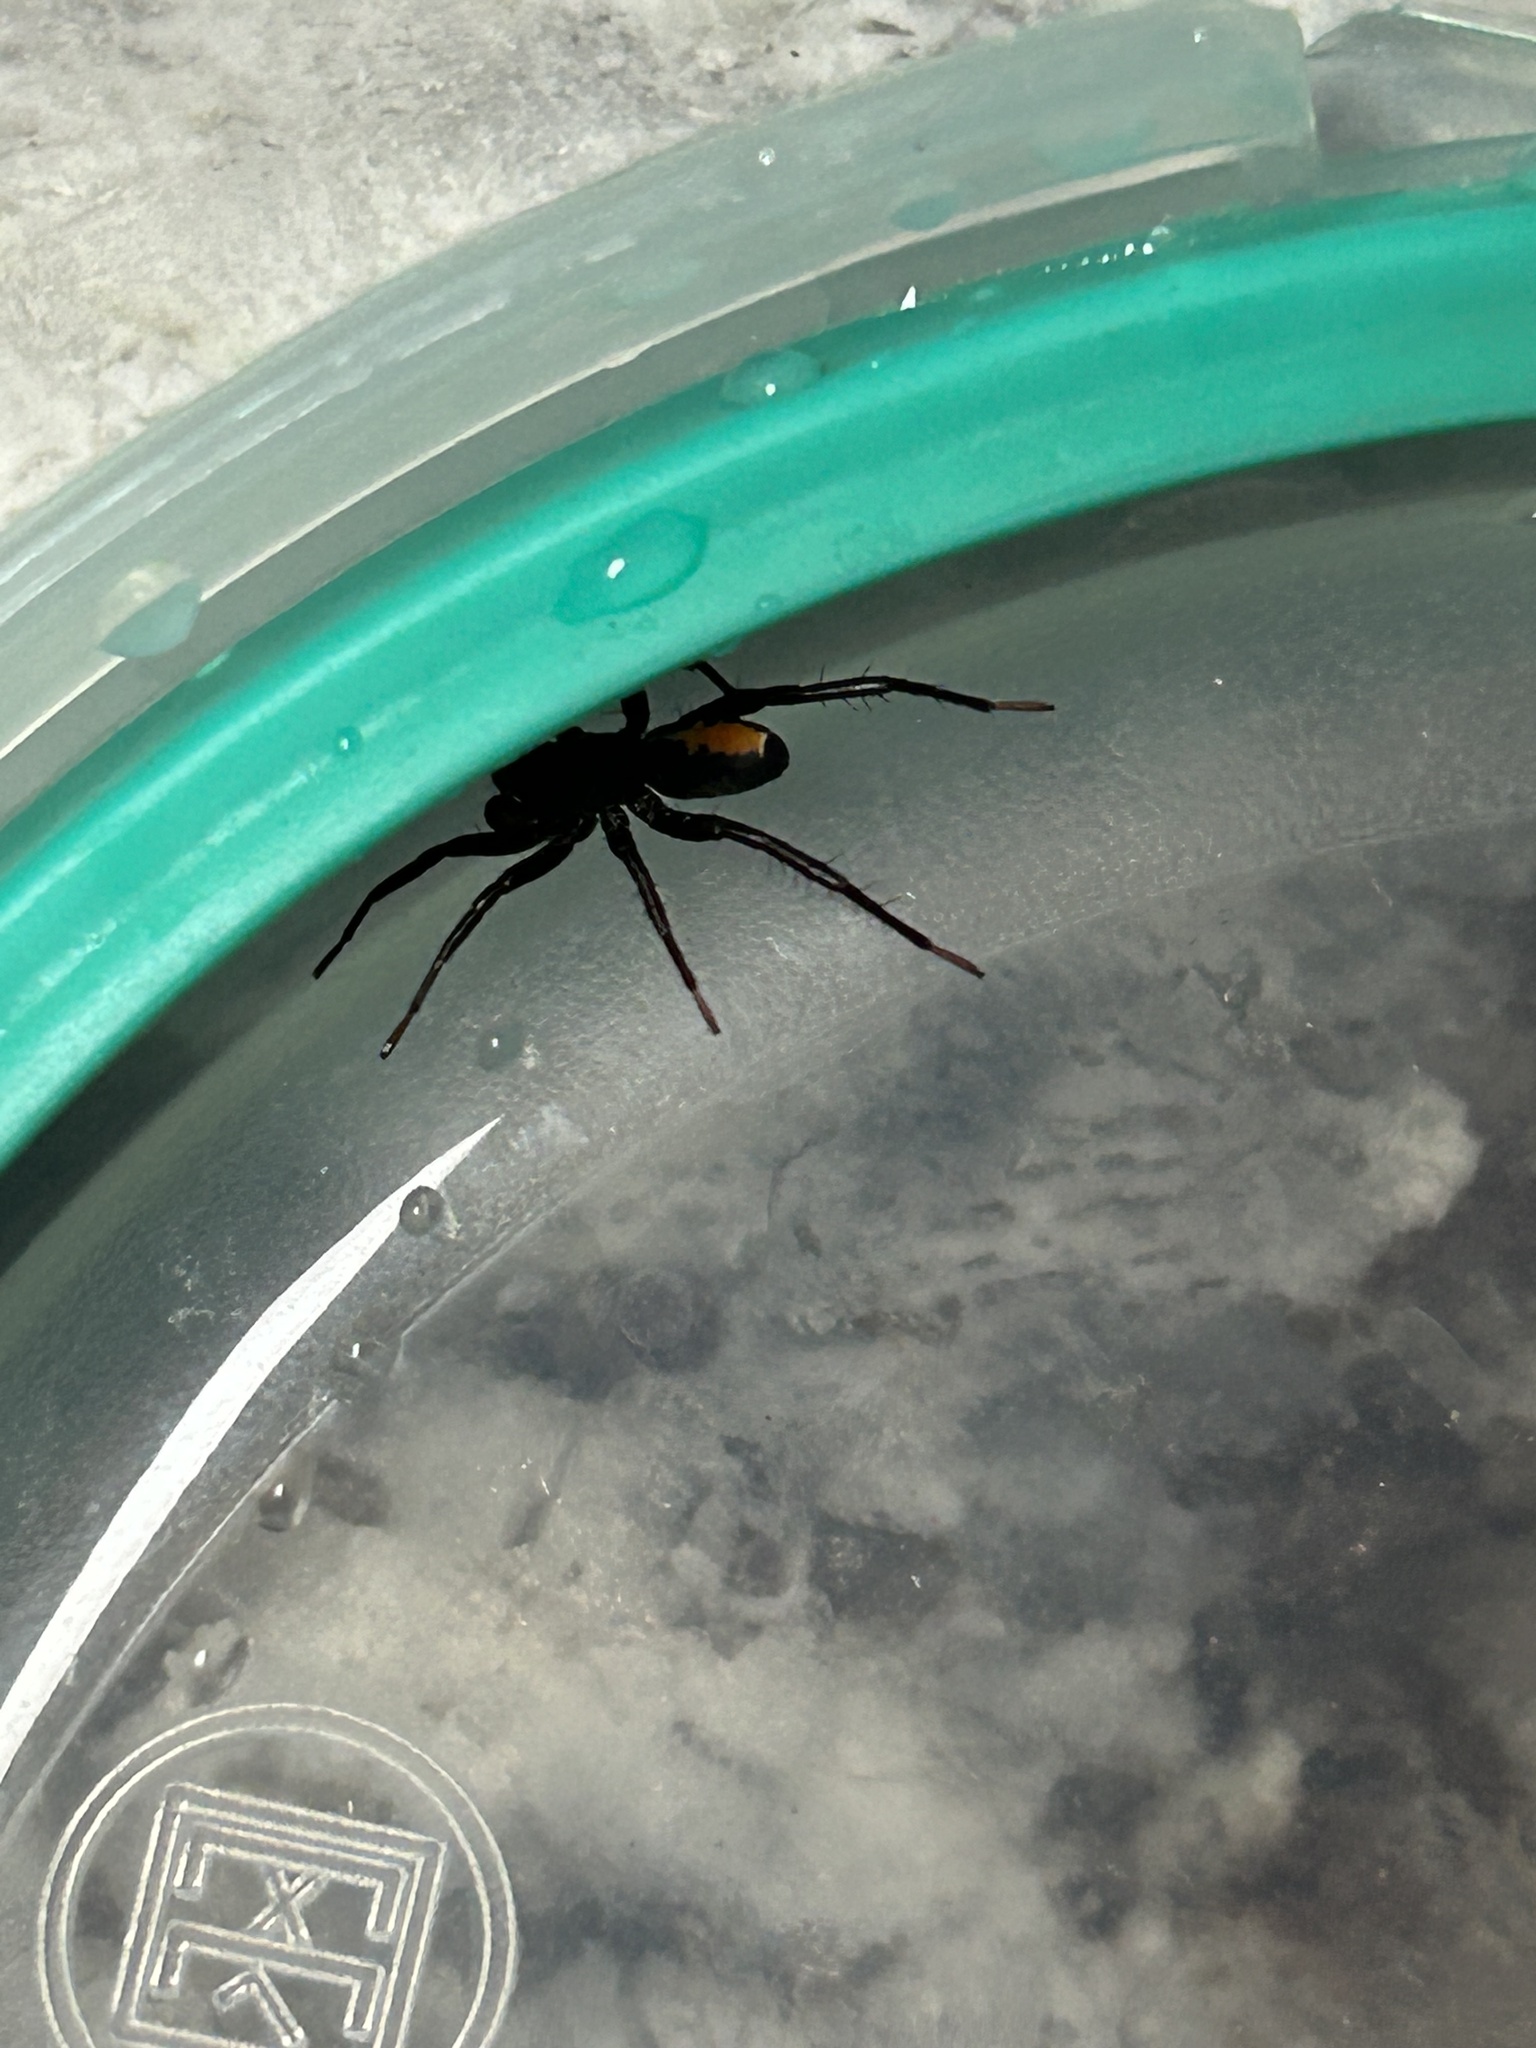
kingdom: Animalia
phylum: Arthropoda
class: Arachnida
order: Araneae
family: Corinnidae
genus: Castianeira
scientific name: Castianeira descripta
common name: Red-spotted ant-mimic sac spider
